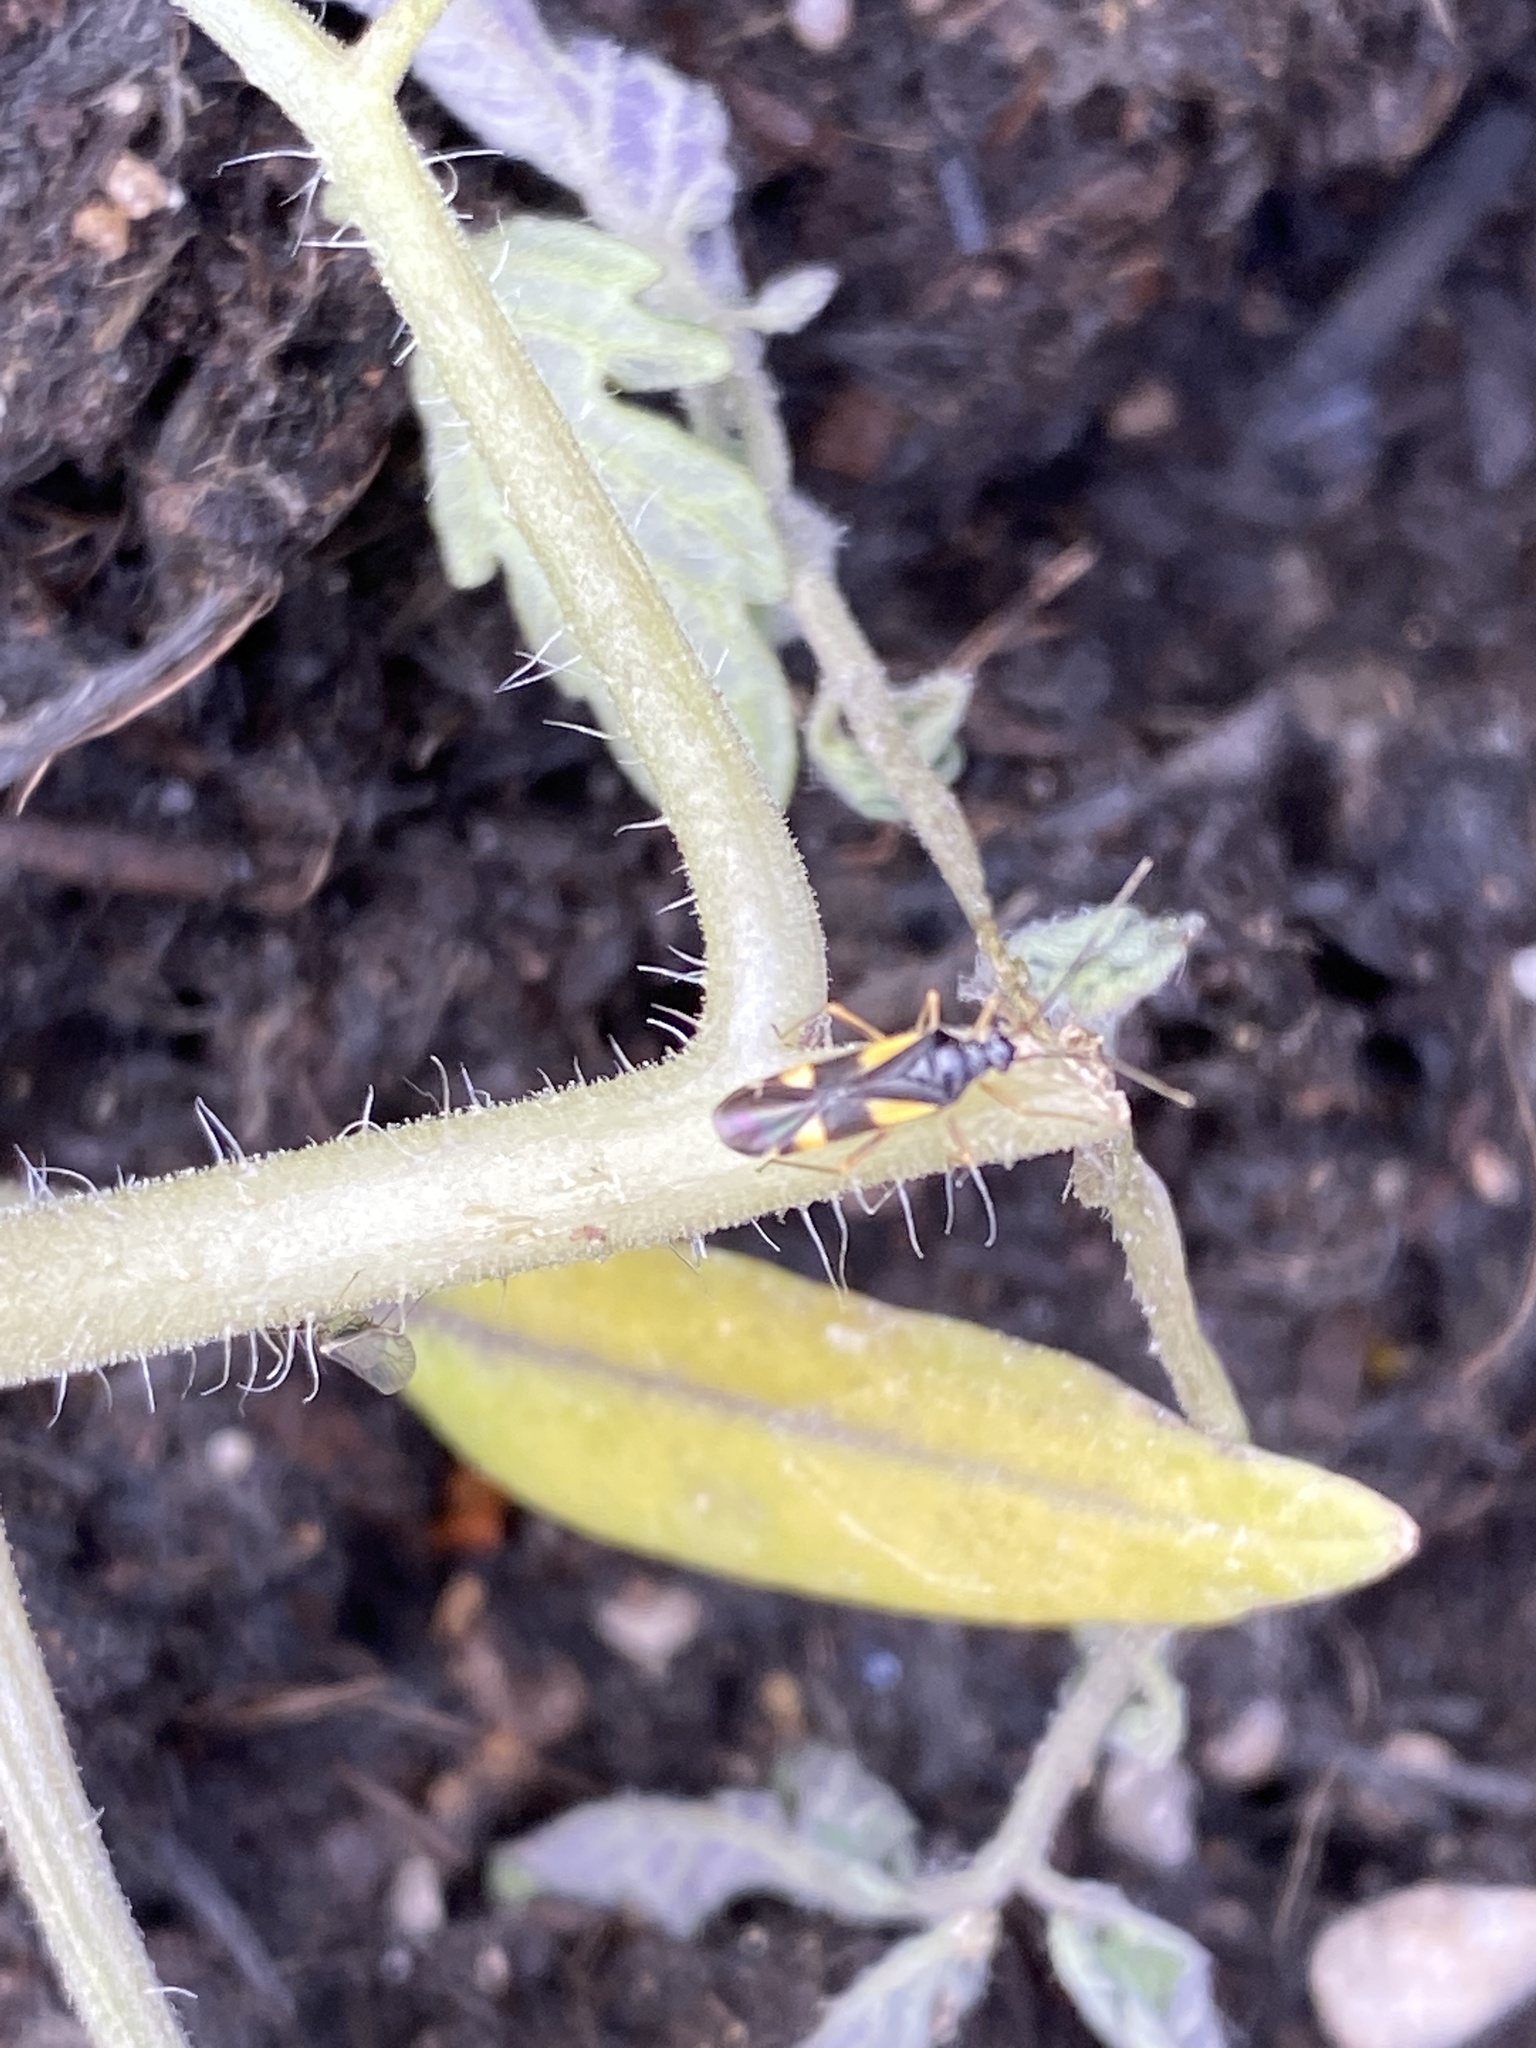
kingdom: Animalia
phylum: Arthropoda
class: Insecta
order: Hemiptera
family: Miridae
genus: Dryophilocoris
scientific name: Dryophilocoris flavoquadrimaculatus
